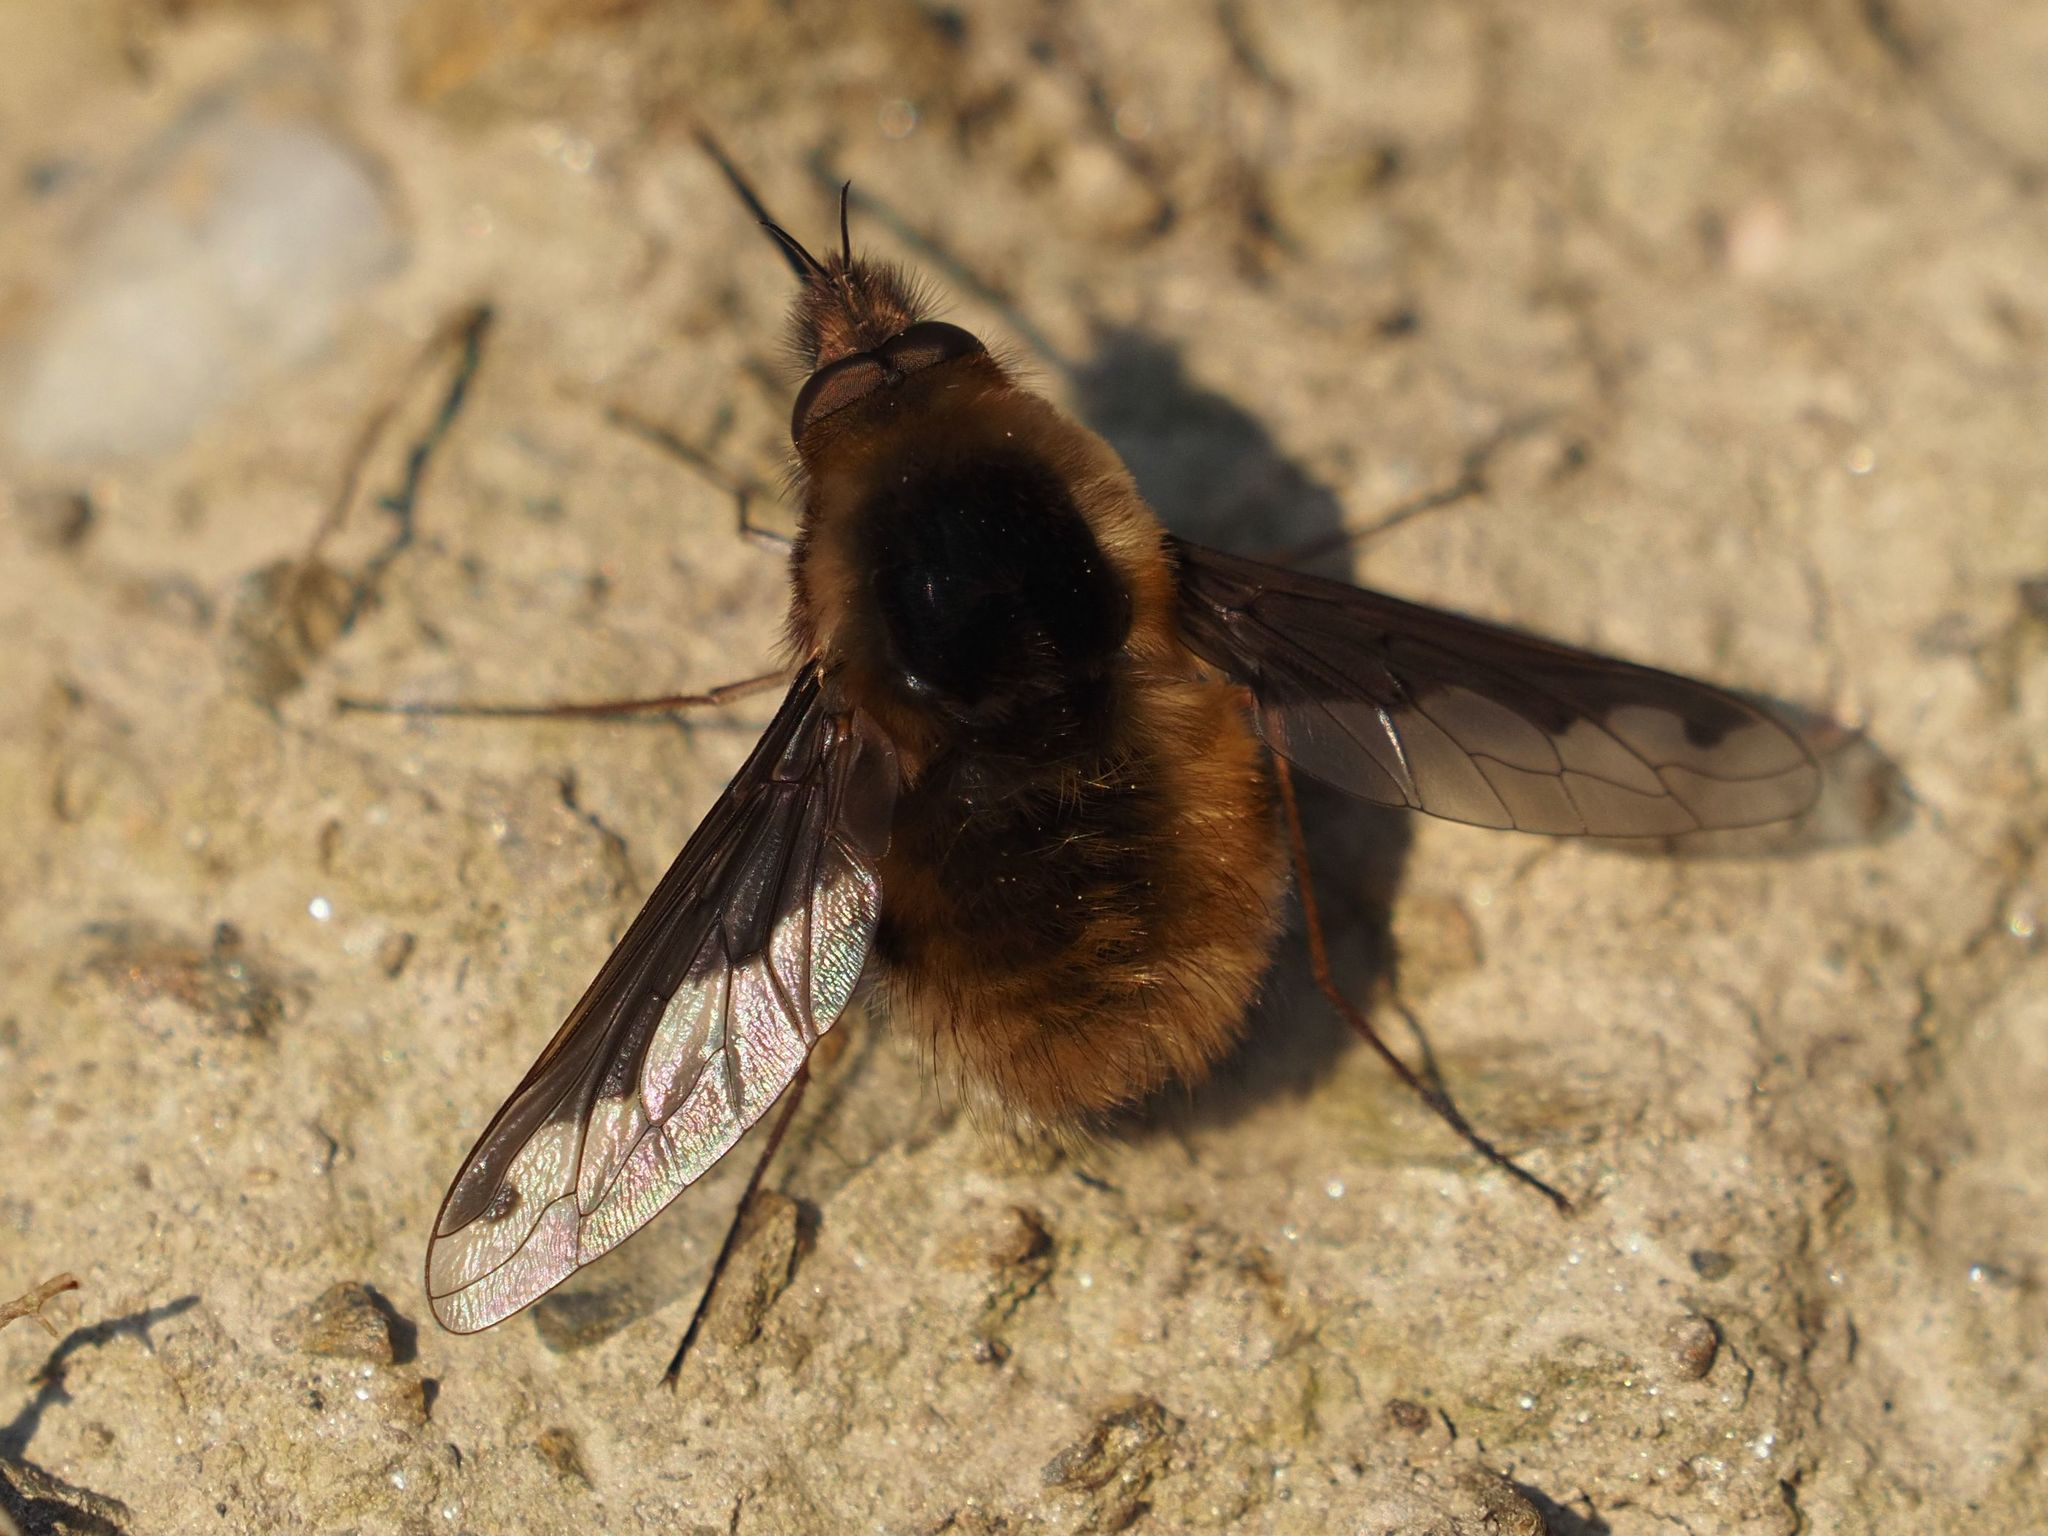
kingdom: Animalia
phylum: Arthropoda
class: Insecta
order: Diptera
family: Bombyliidae
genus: Bombylius
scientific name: Bombylius major
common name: Bee fly
